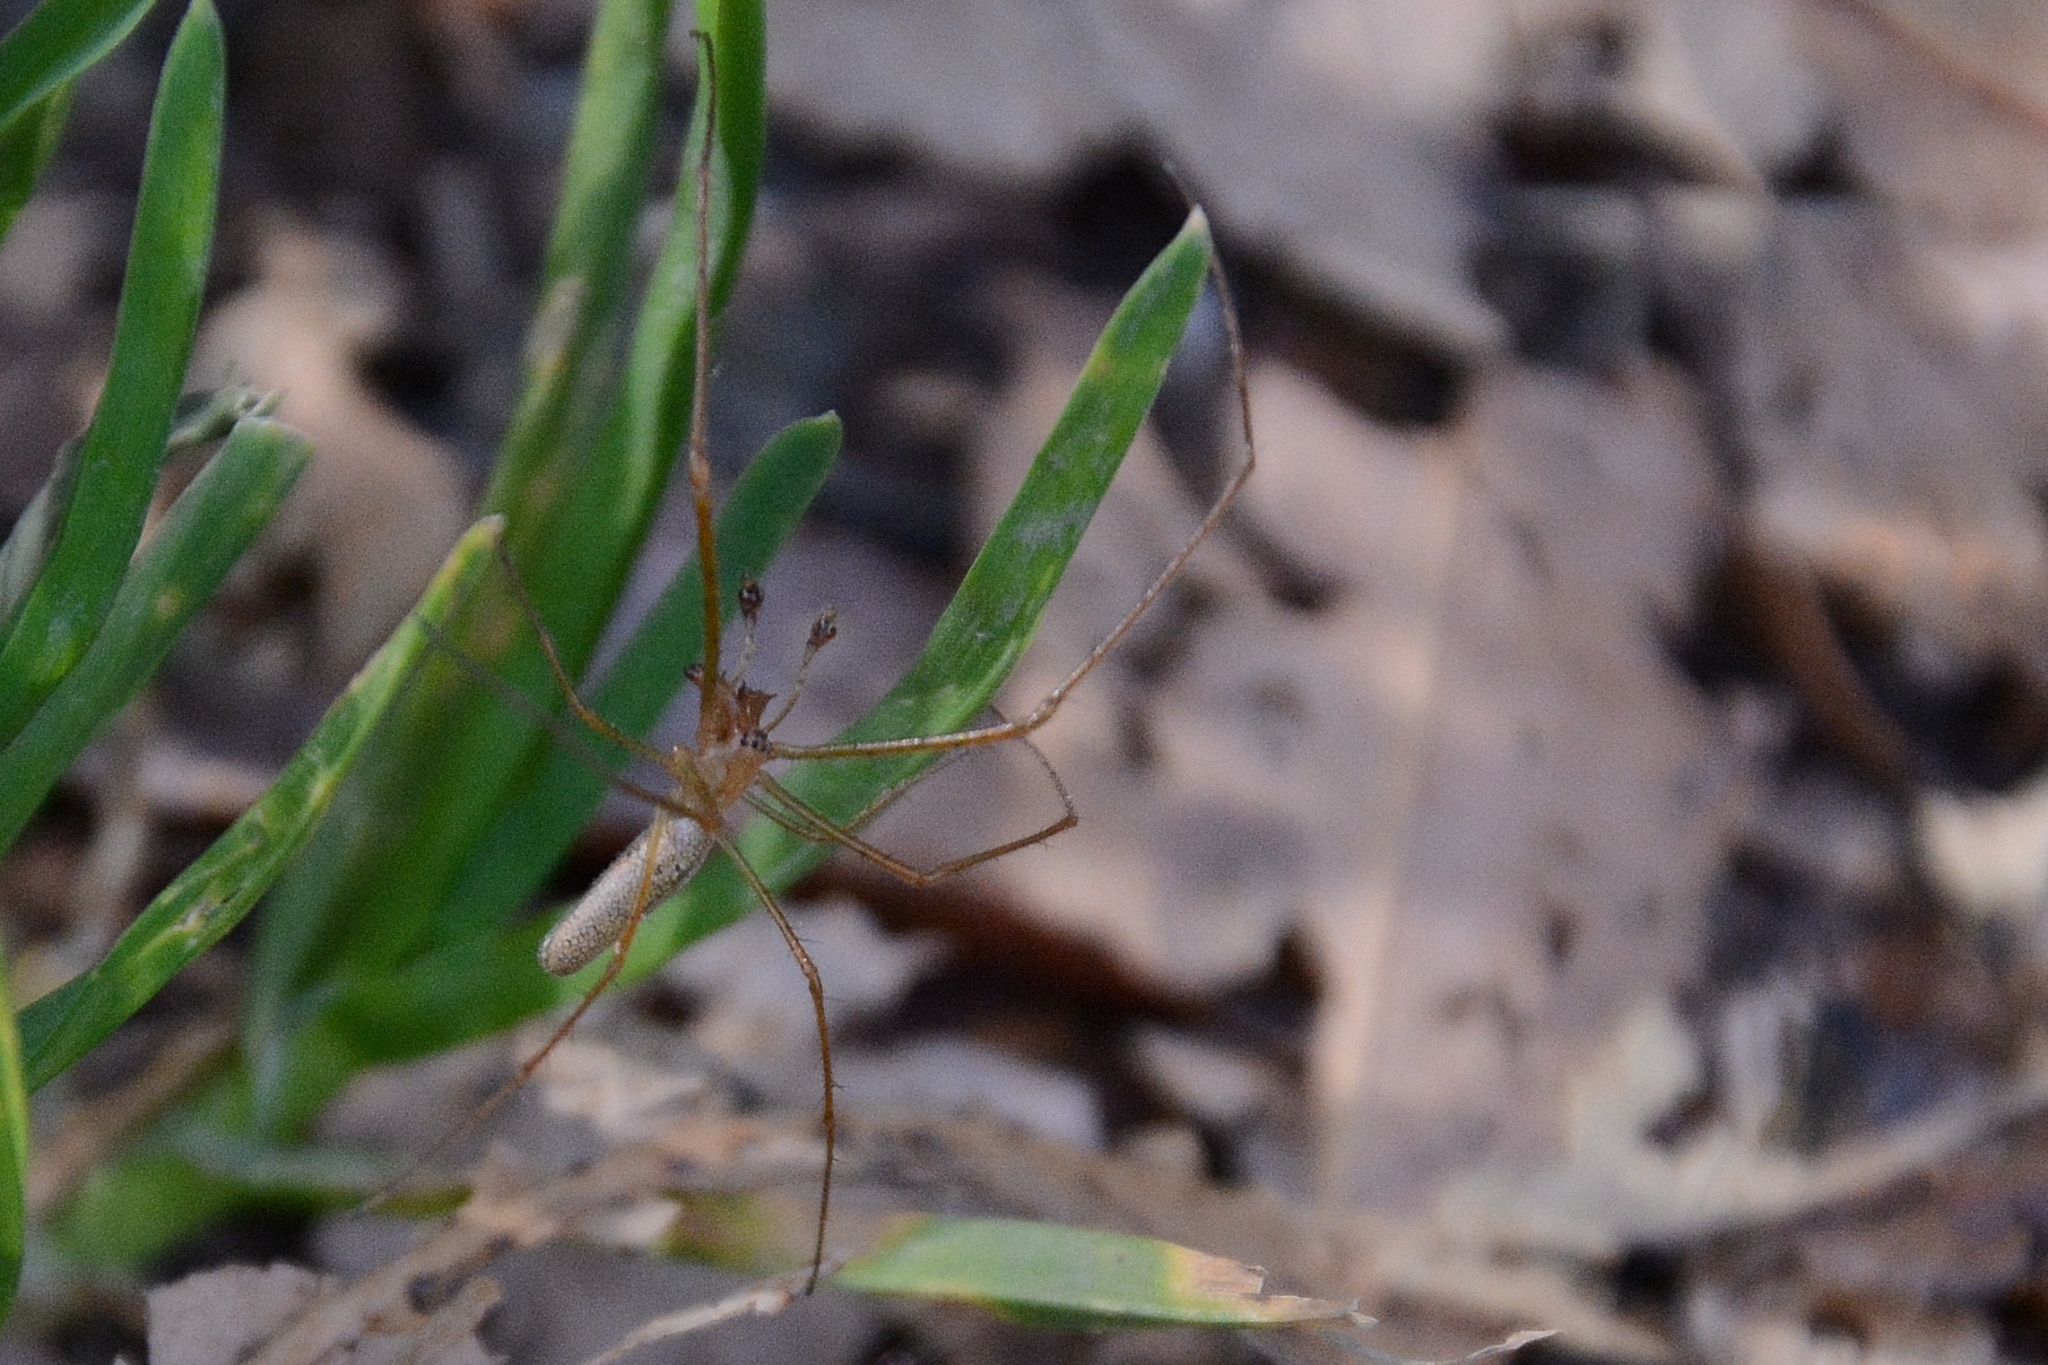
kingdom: Animalia
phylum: Arthropoda
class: Arachnida
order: Araneae
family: Tetragnathidae
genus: Tetragnatha
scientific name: Tetragnatha
